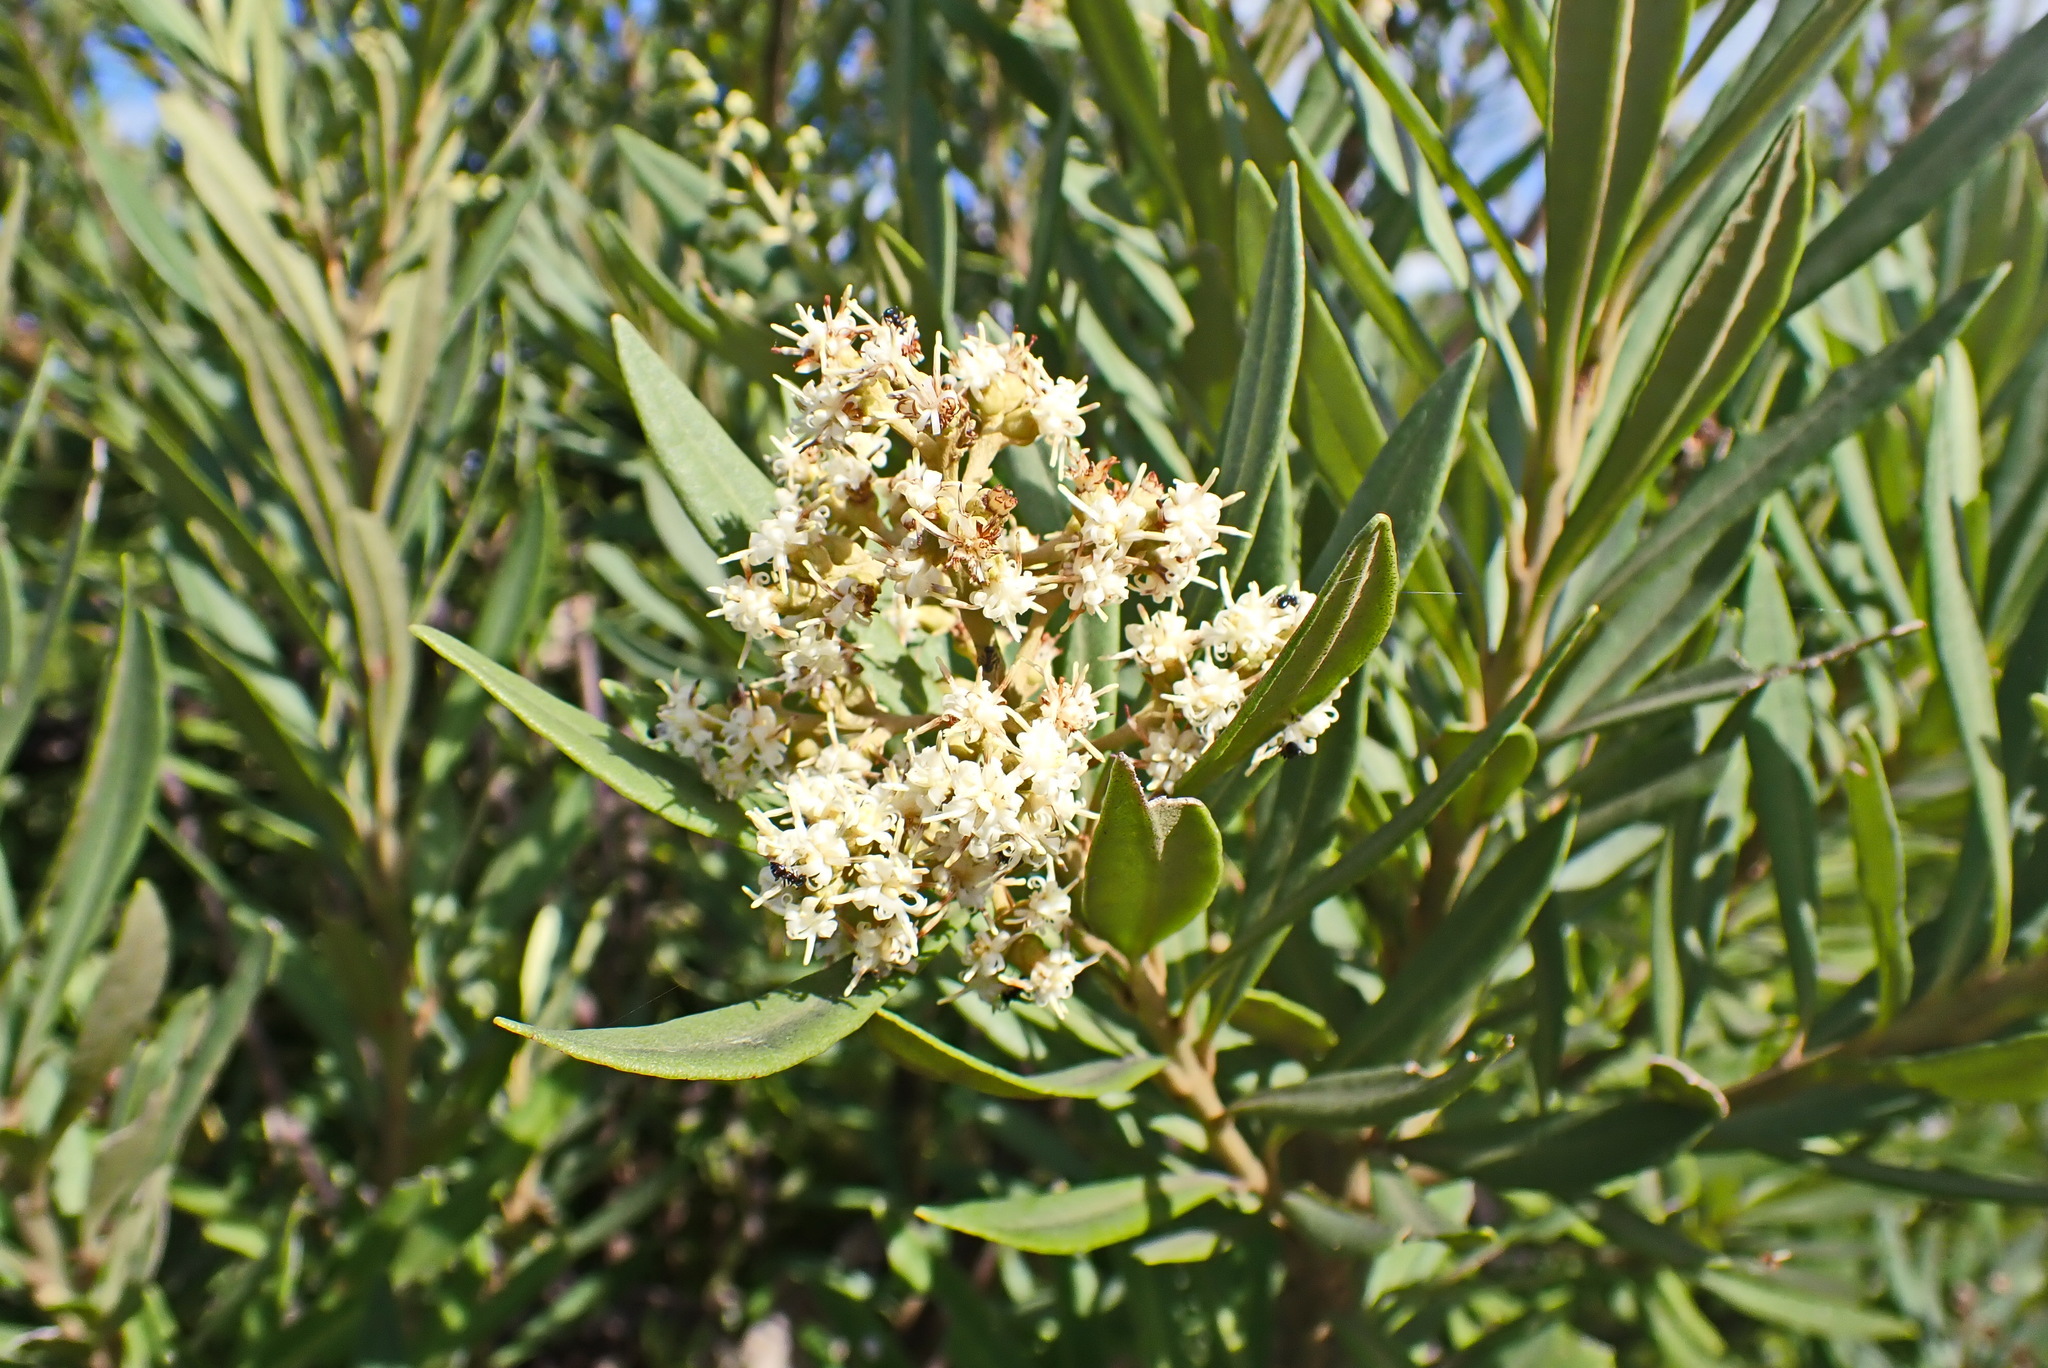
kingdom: Plantae
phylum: Tracheophyta
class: Magnoliopsida
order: Asterales
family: Asteraceae
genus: Brachylaena
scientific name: Brachylaena neriifolia
